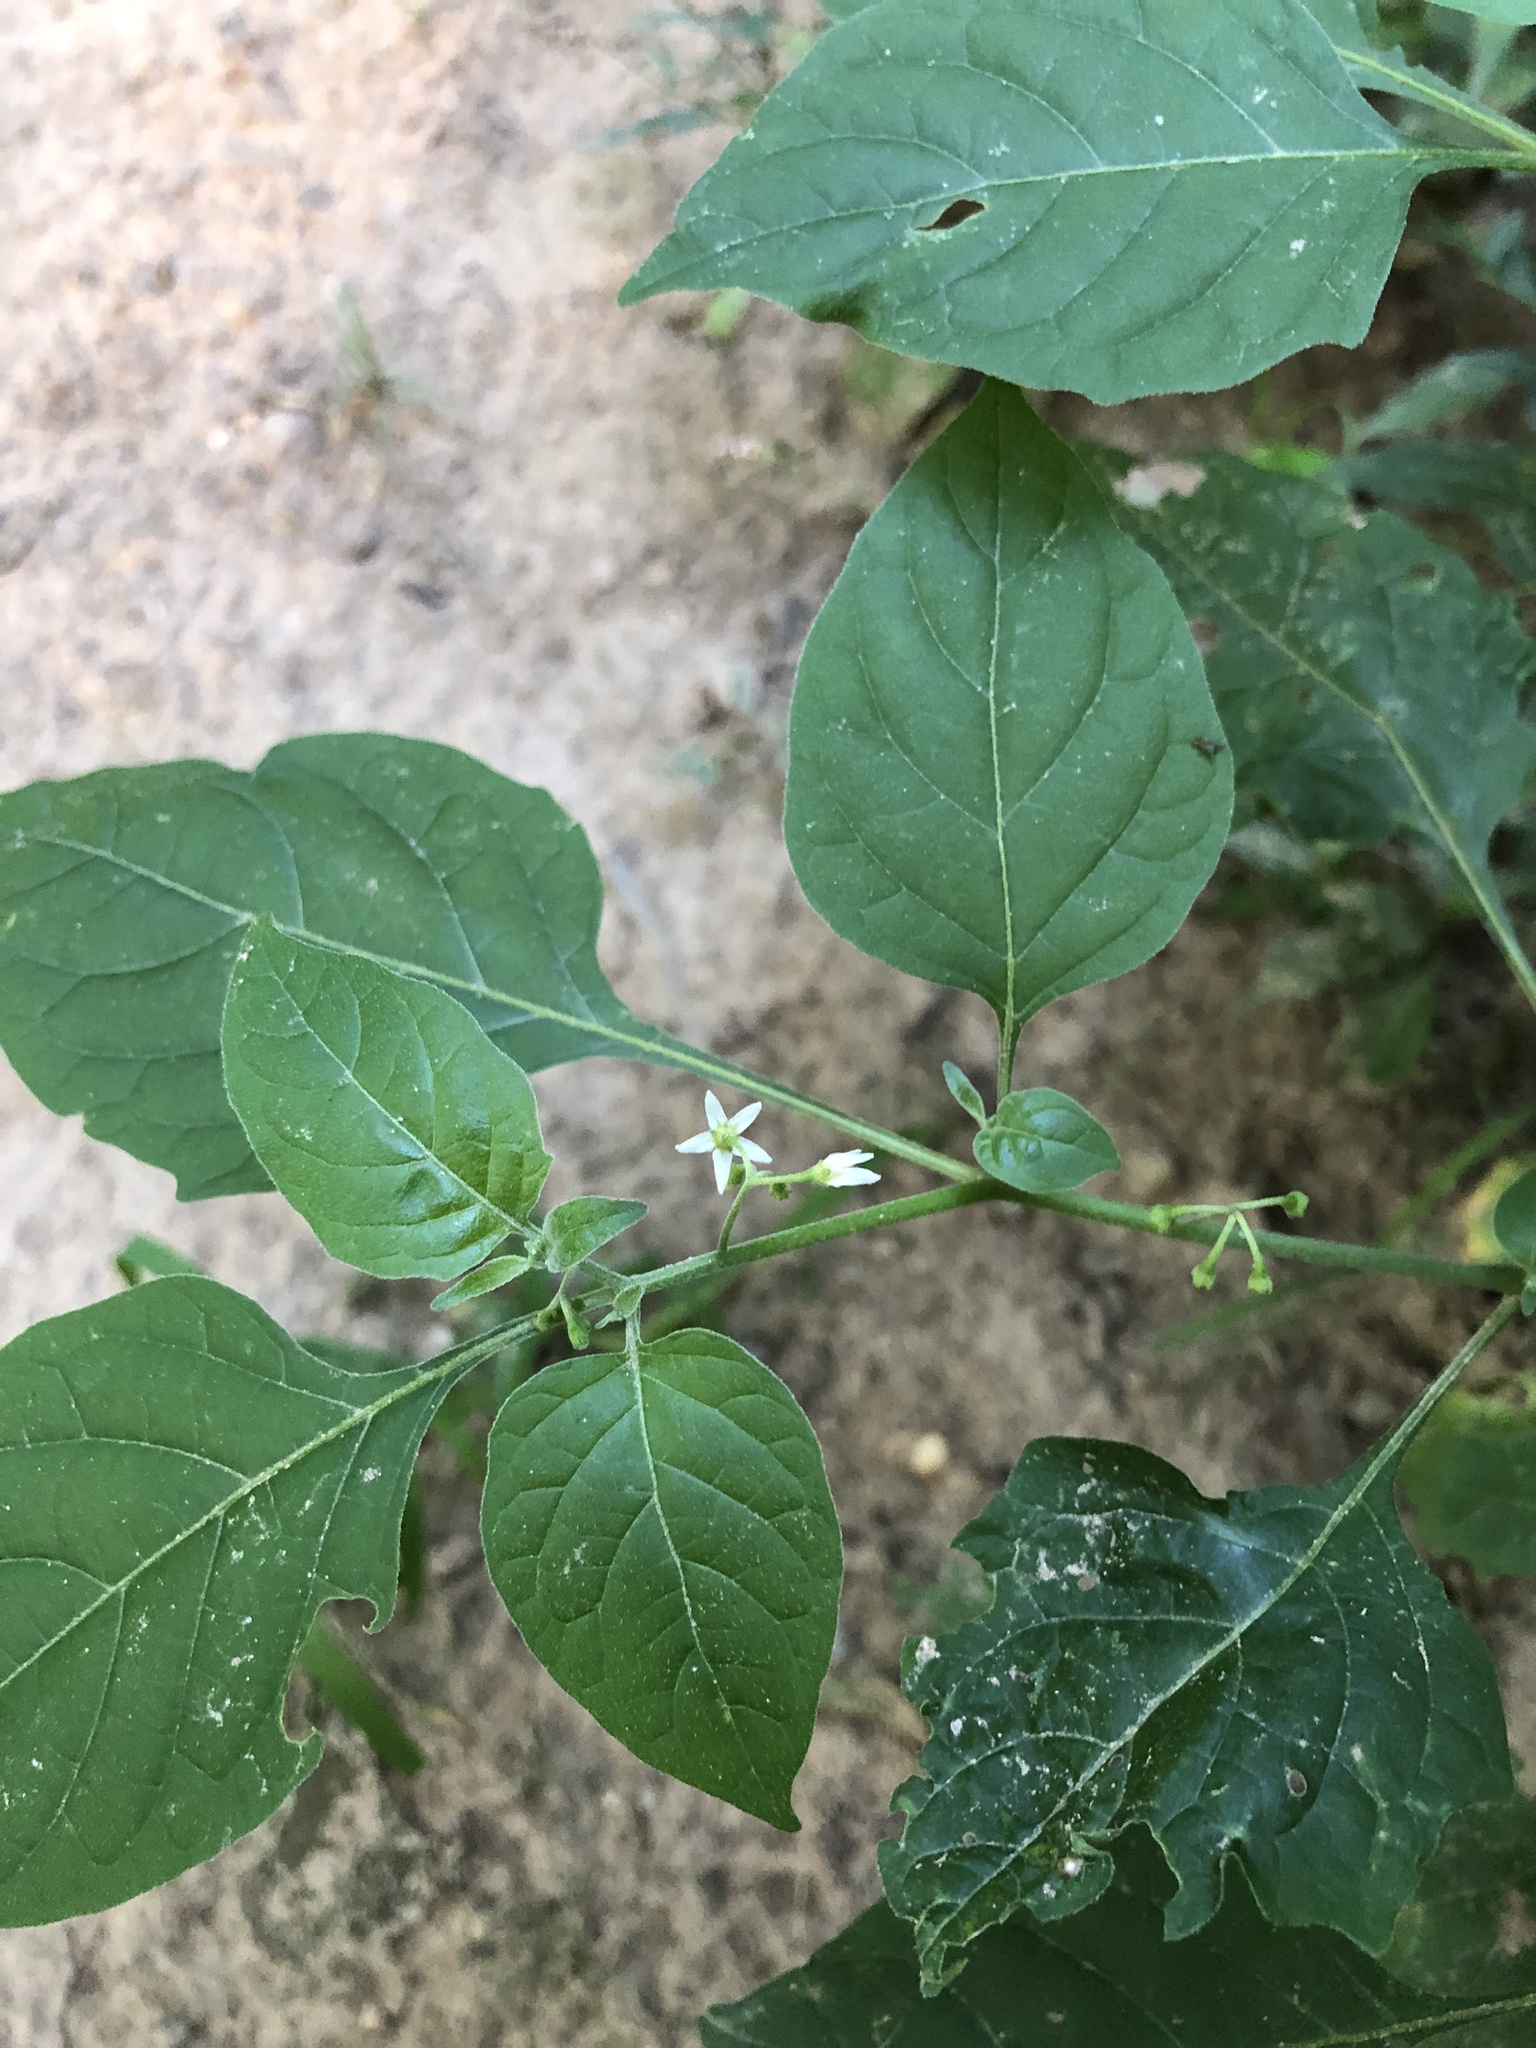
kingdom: Plantae
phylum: Tracheophyta
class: Magnoliopsida
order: Solanales
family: Solanaceae
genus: Solanum
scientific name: Solanum emulans
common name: Eastern black nightshade
